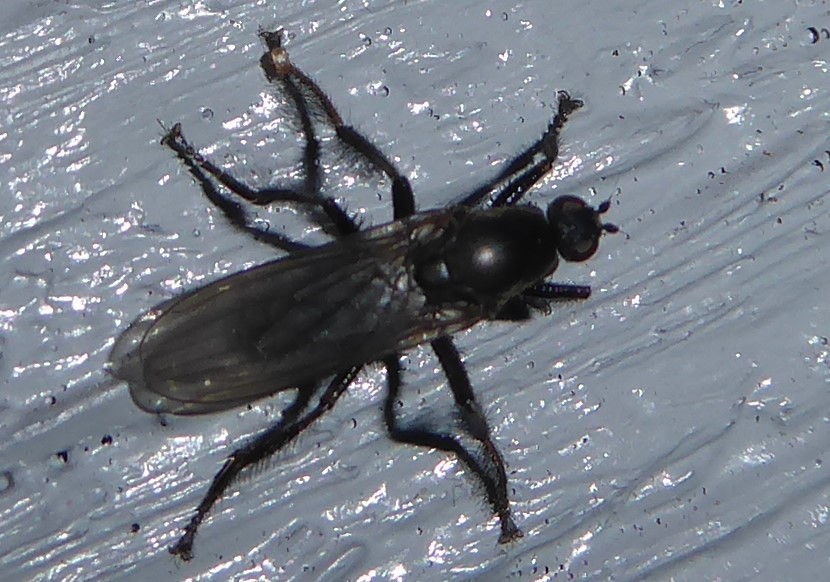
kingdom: Animalia
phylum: Arthropoda
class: Insecta
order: Diptera
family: Coelopidae
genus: Chaetocoelopa
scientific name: Chaetocoelopa littoralis
